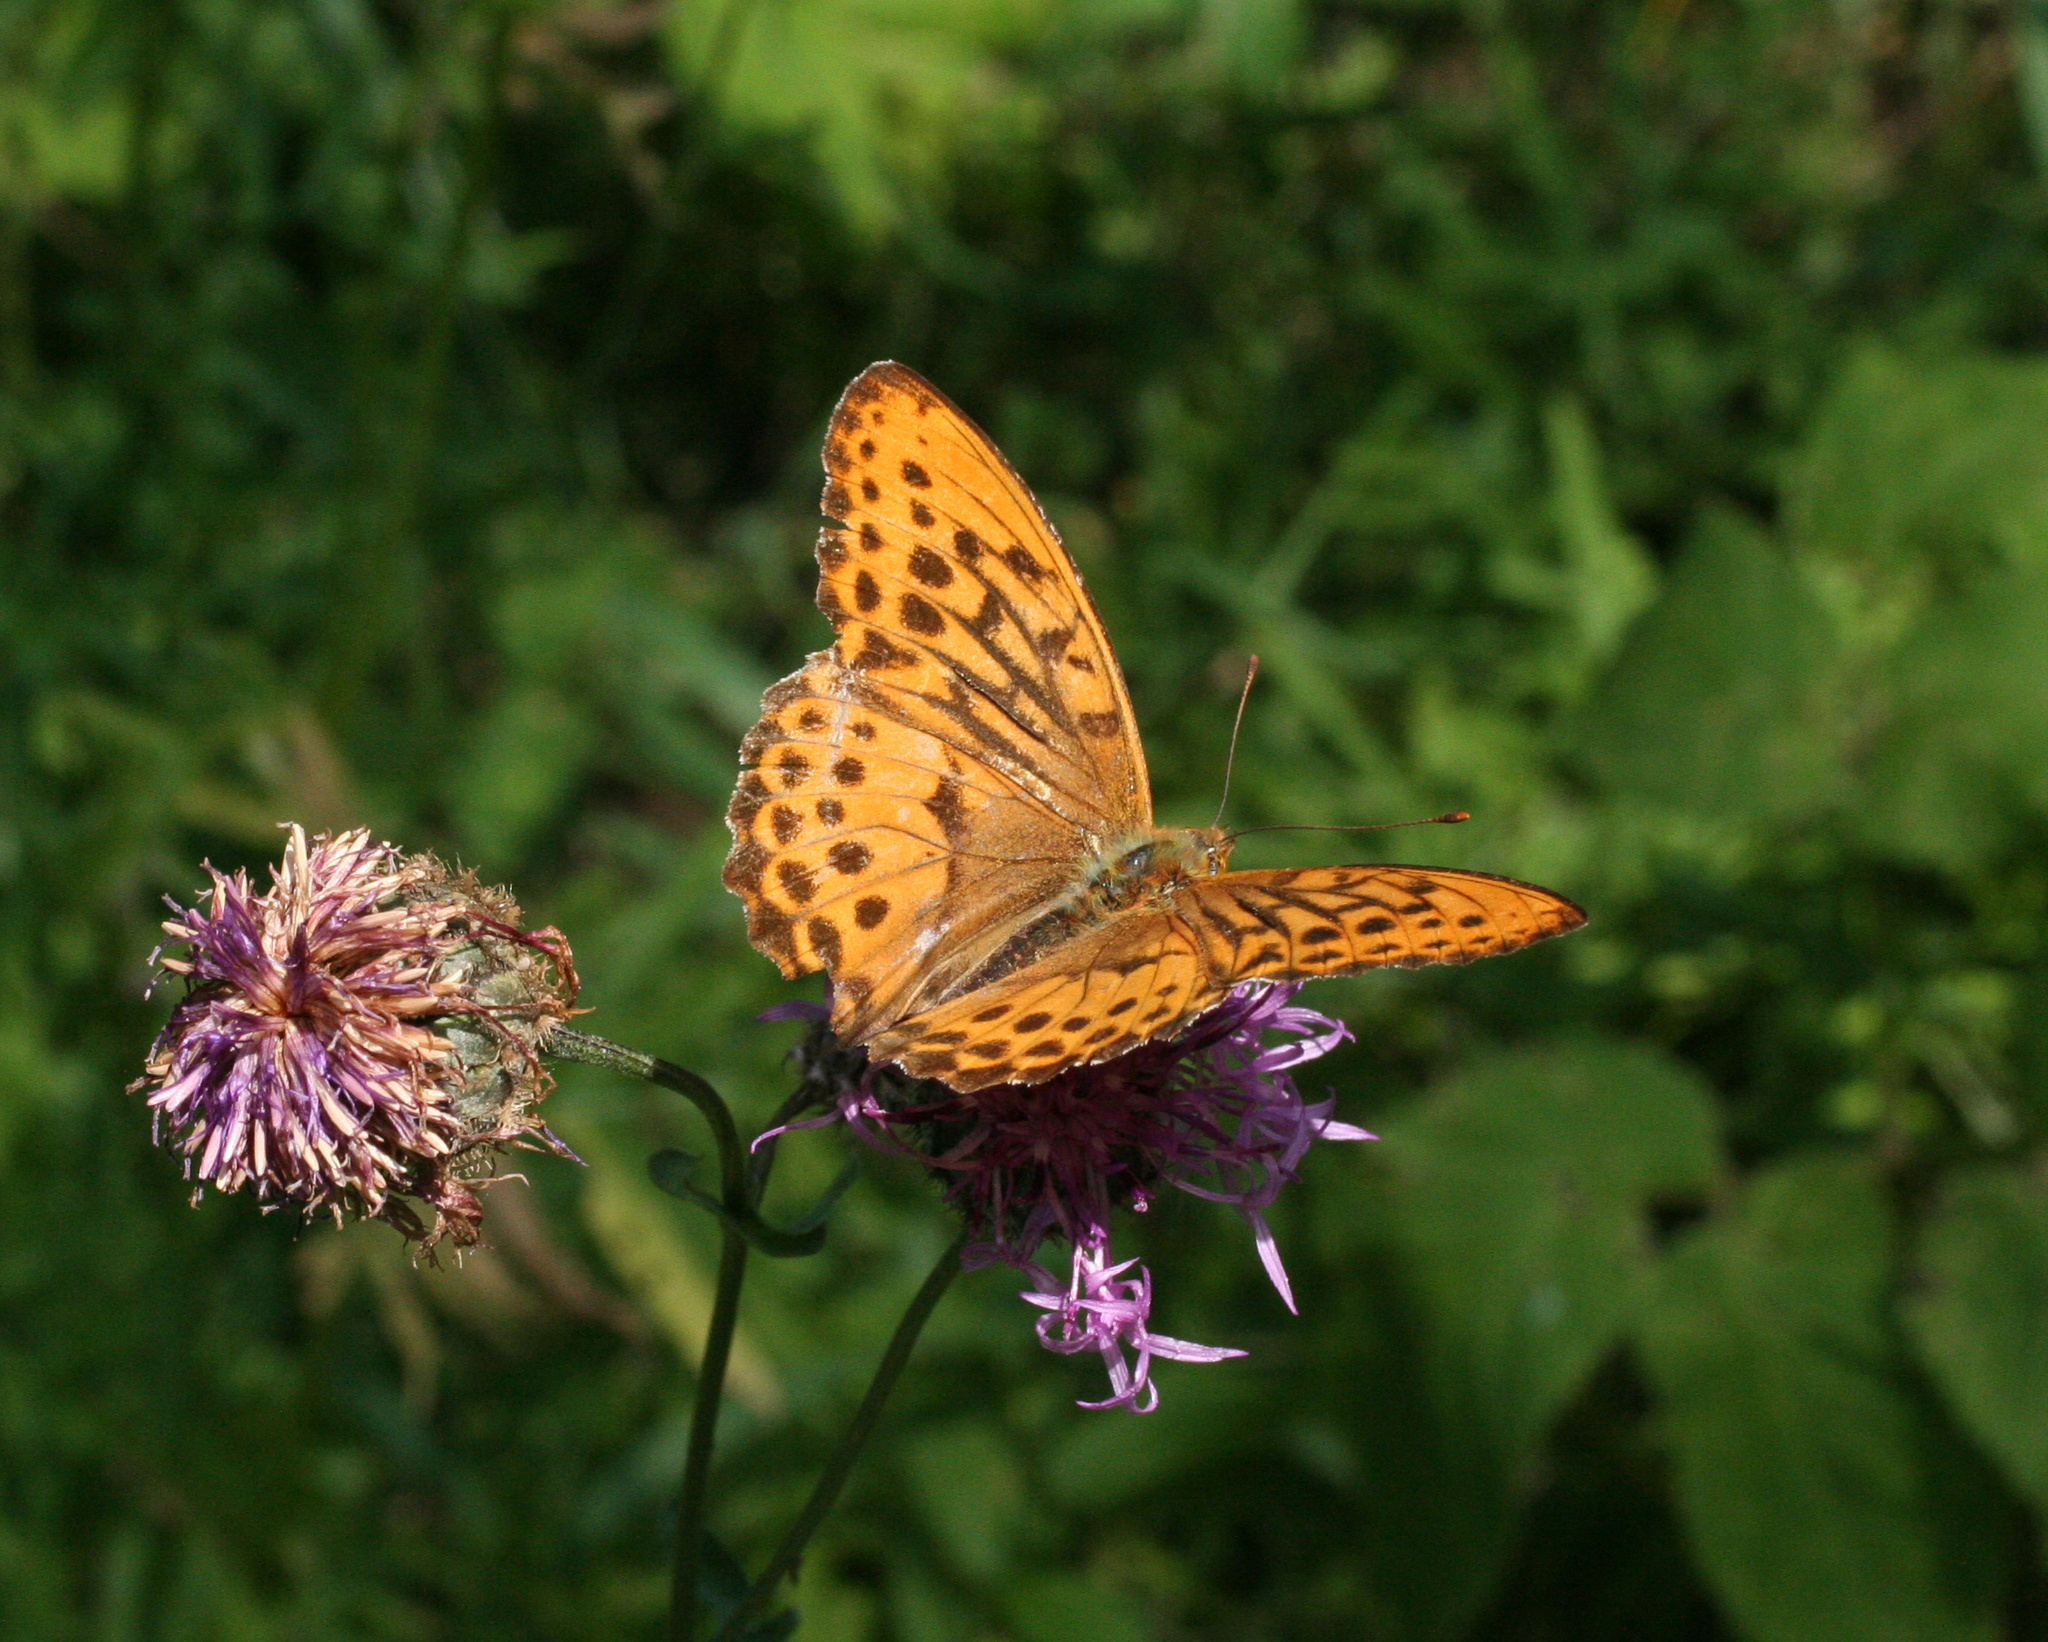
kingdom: Animalia
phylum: Arthropoda
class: Insecta
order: Lepidoptera
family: Nymphalidae
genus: Damora
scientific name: Damora sagana
